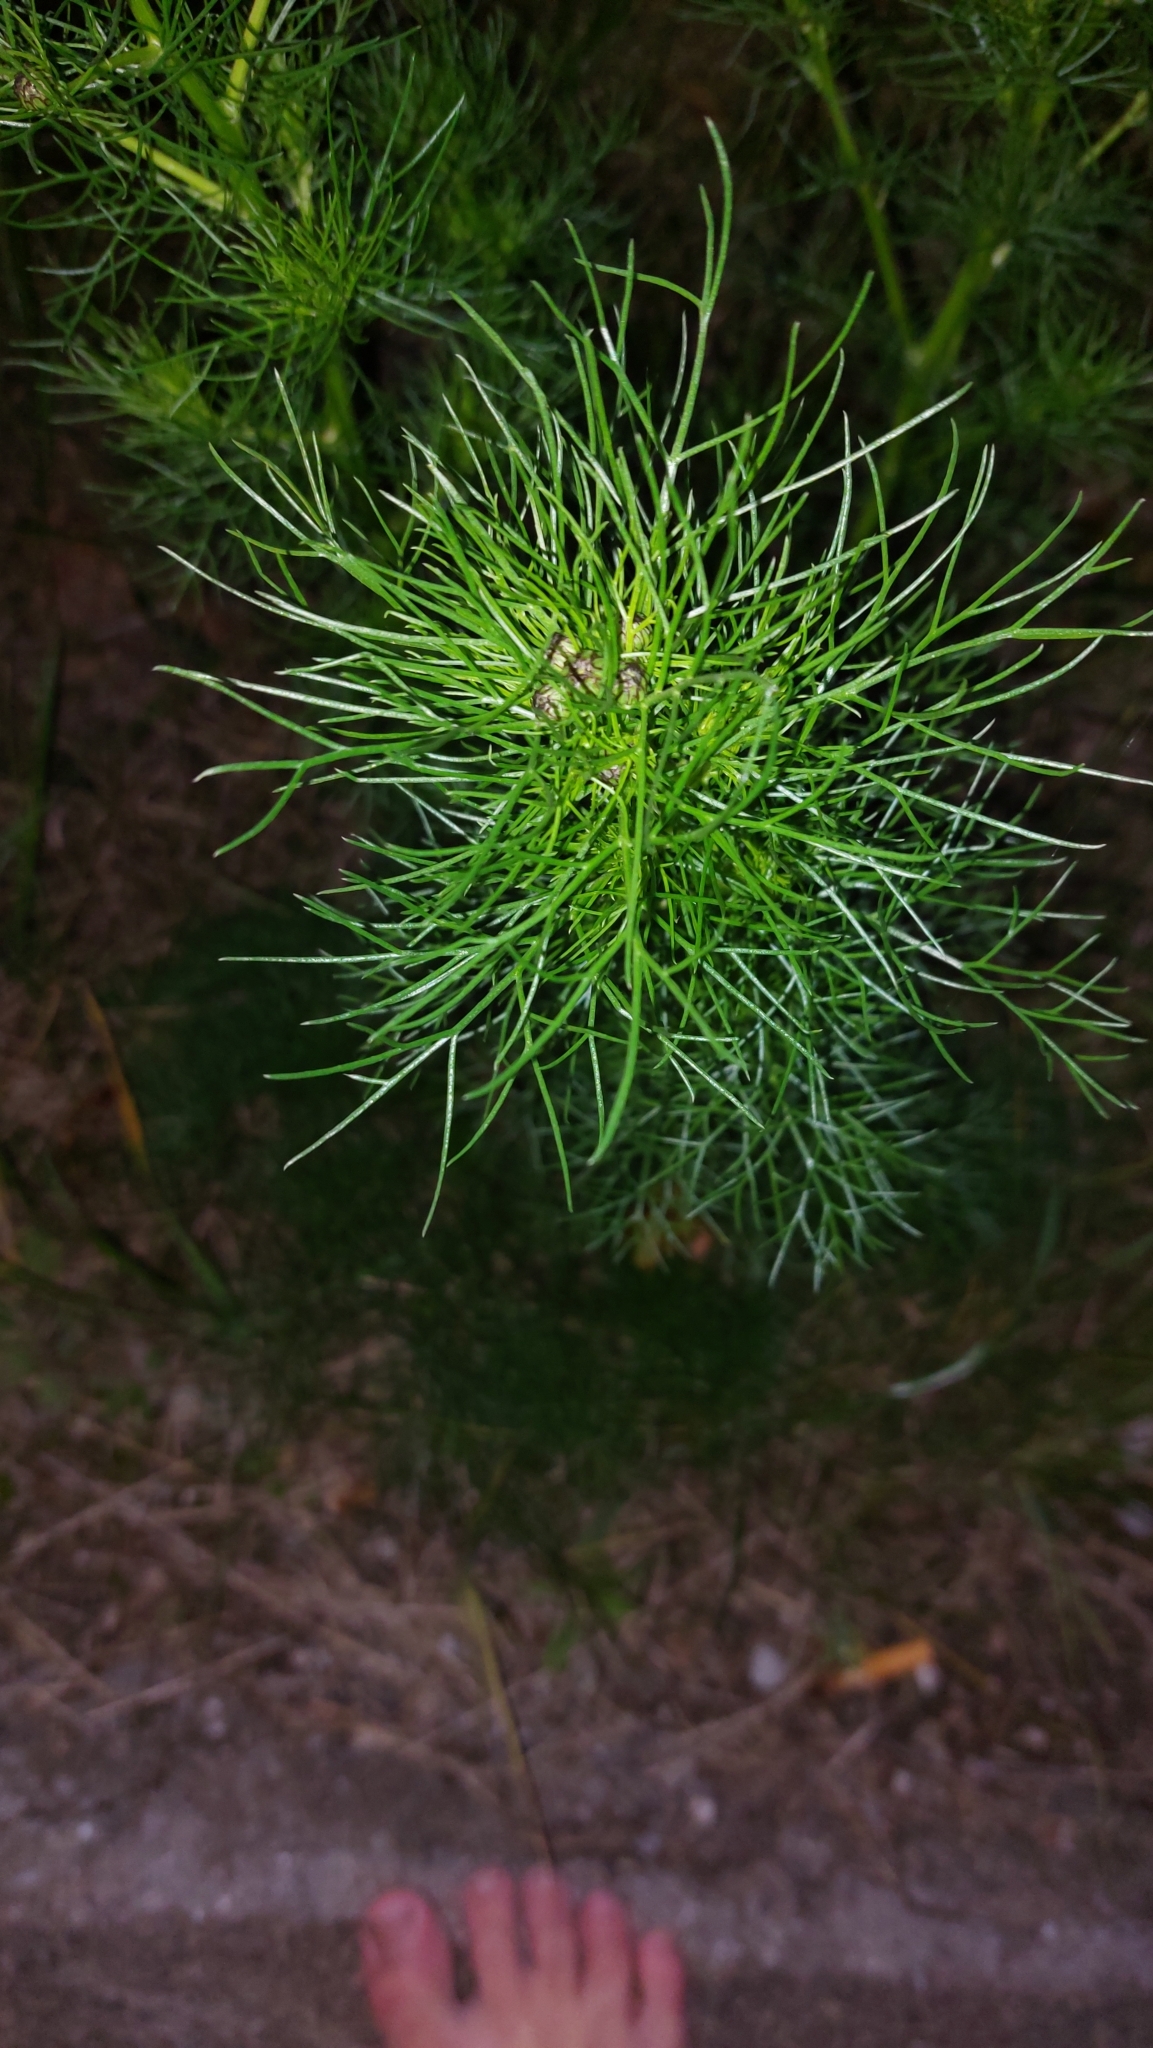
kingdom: Plantae
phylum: Tracheophyta
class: Magnoliopsida
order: Asterales
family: Asteraceae
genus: Tripleurospermum
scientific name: Tripleurospermum inodorum
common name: Scentless mayweed
